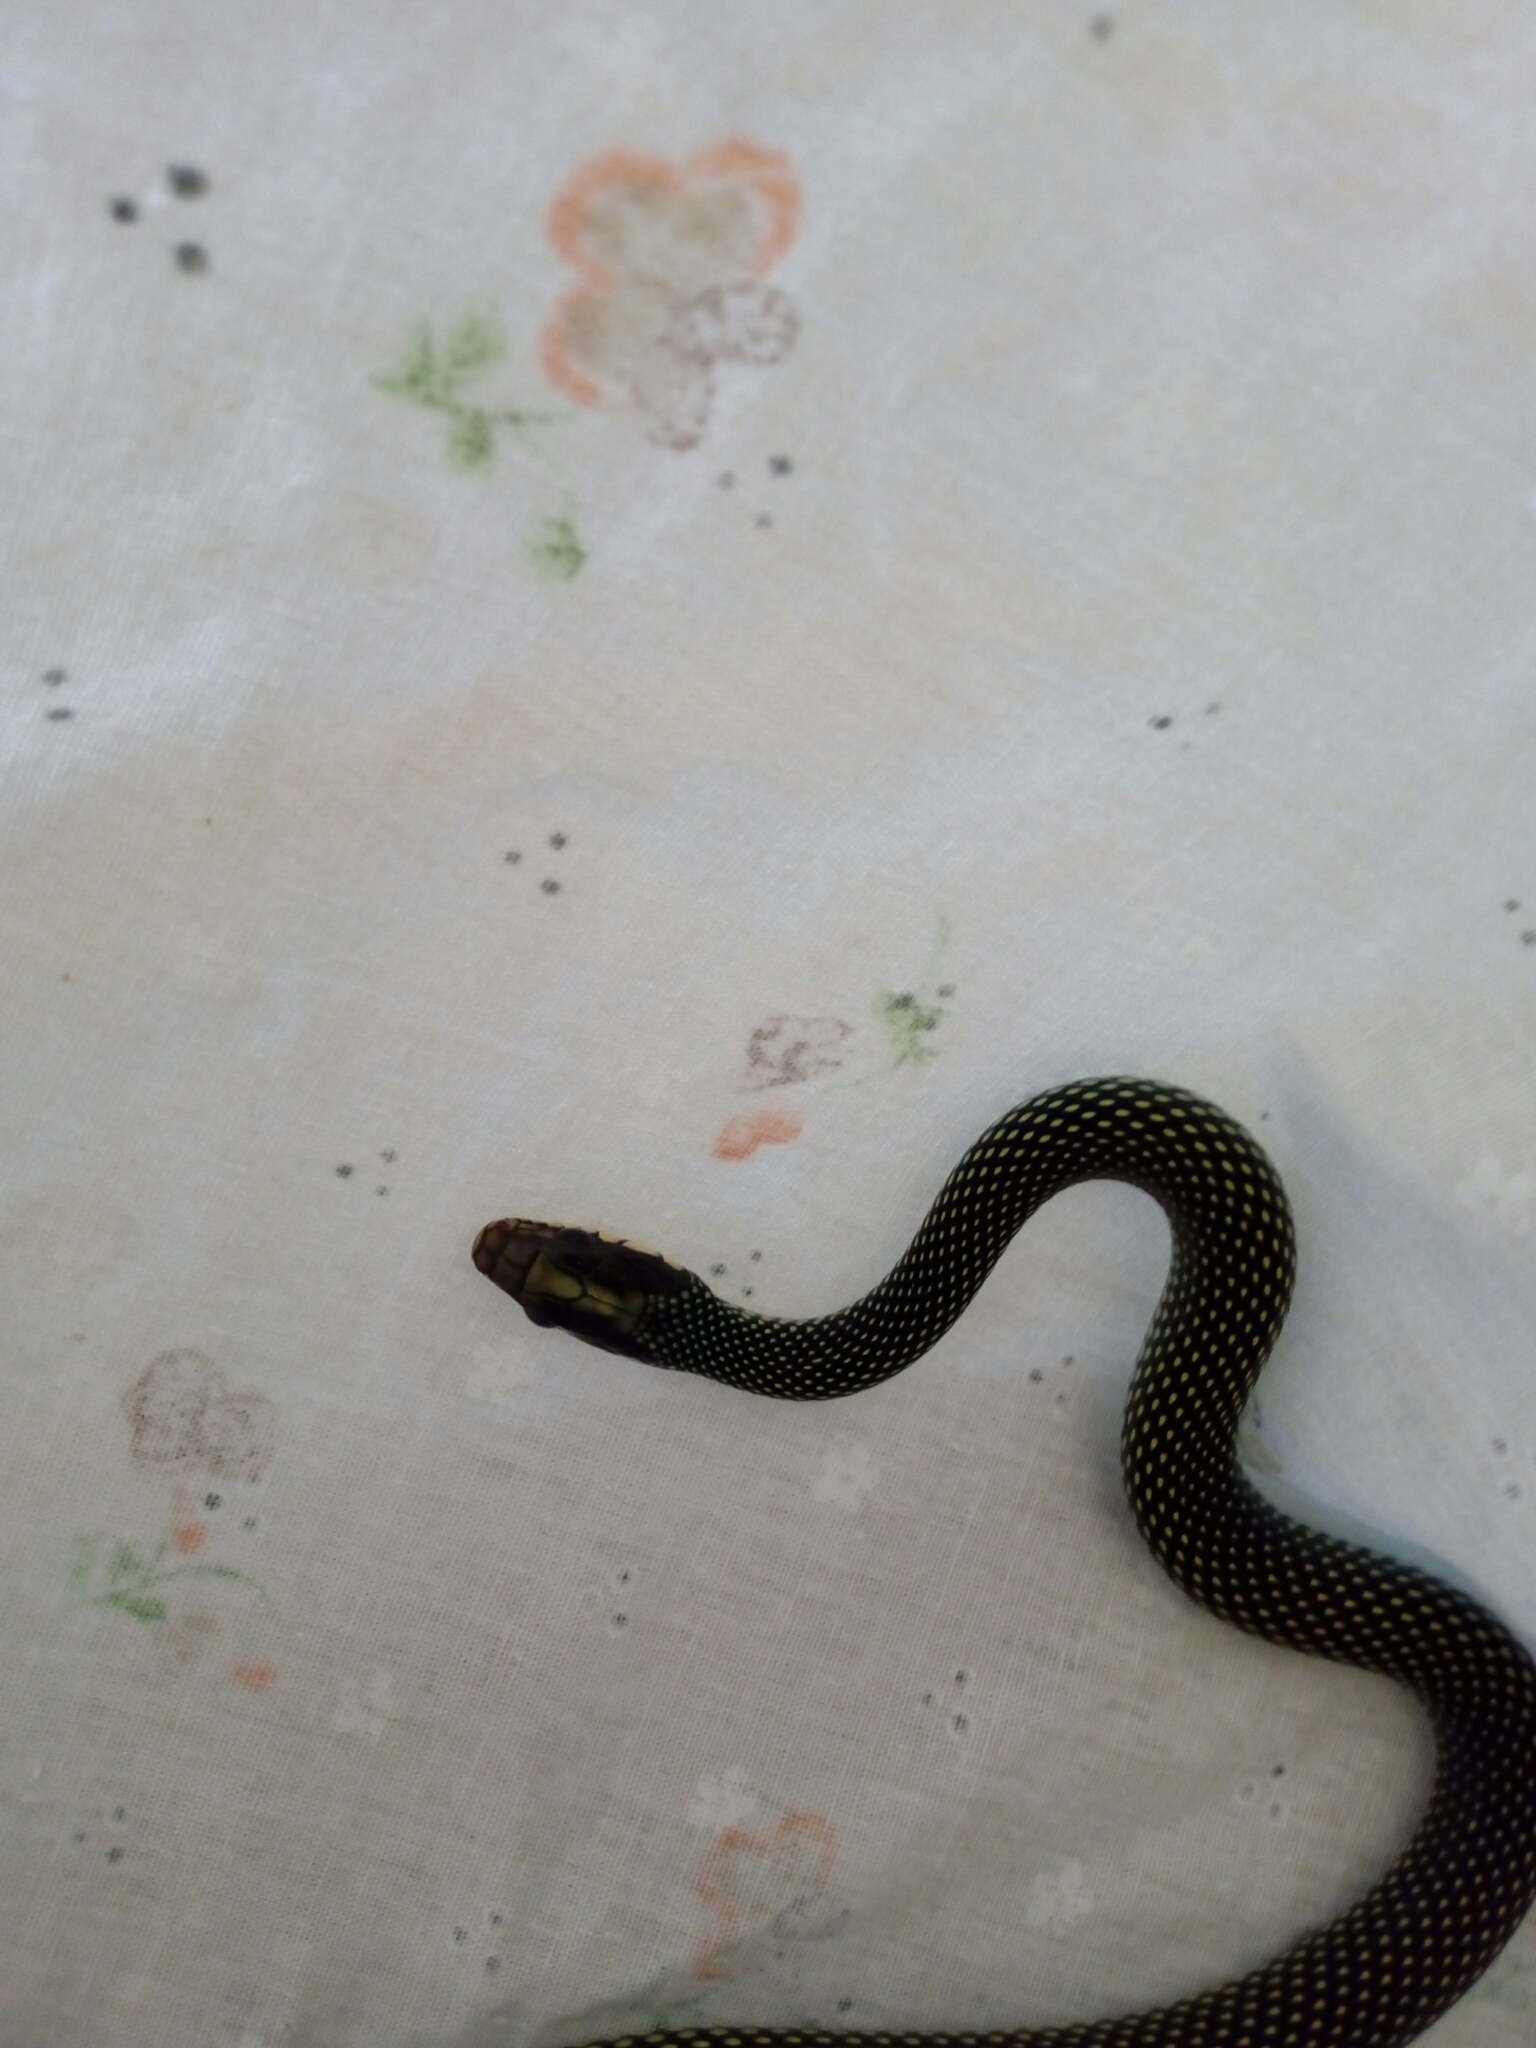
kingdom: Animalia
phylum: Chordata
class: Squamata
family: Colubridae
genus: Drymobius
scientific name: Drymobius margaritiferus
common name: Central american speckled racer
